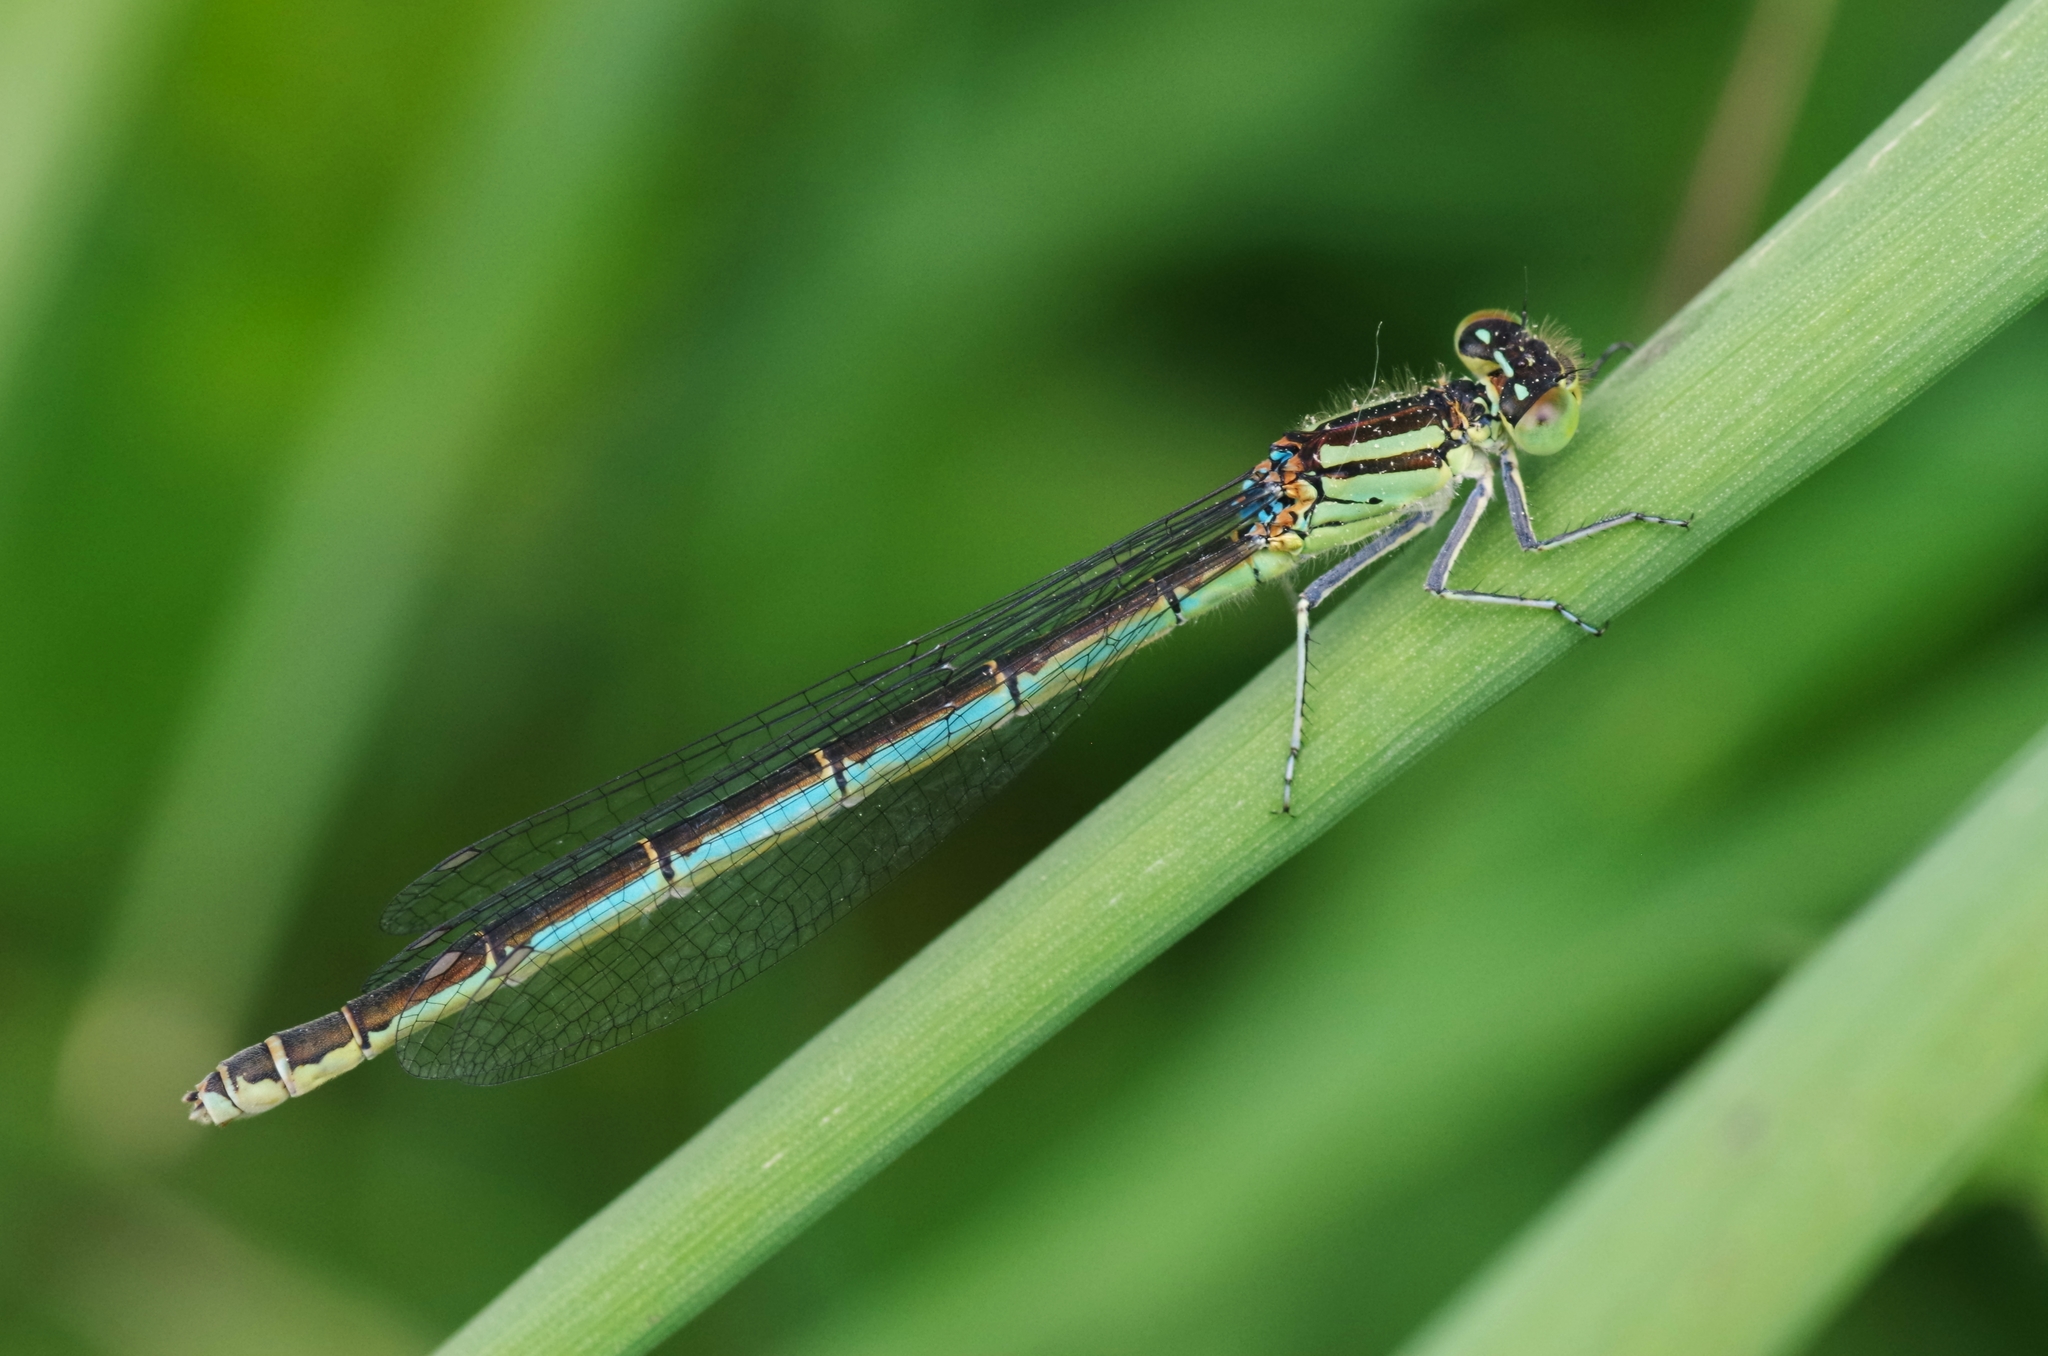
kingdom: Animalia
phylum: Arthropoda
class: Insecta
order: Odonata
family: Coenagrionidae
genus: Erythromma
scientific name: Erythromma lindenii
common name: Blue-eye
